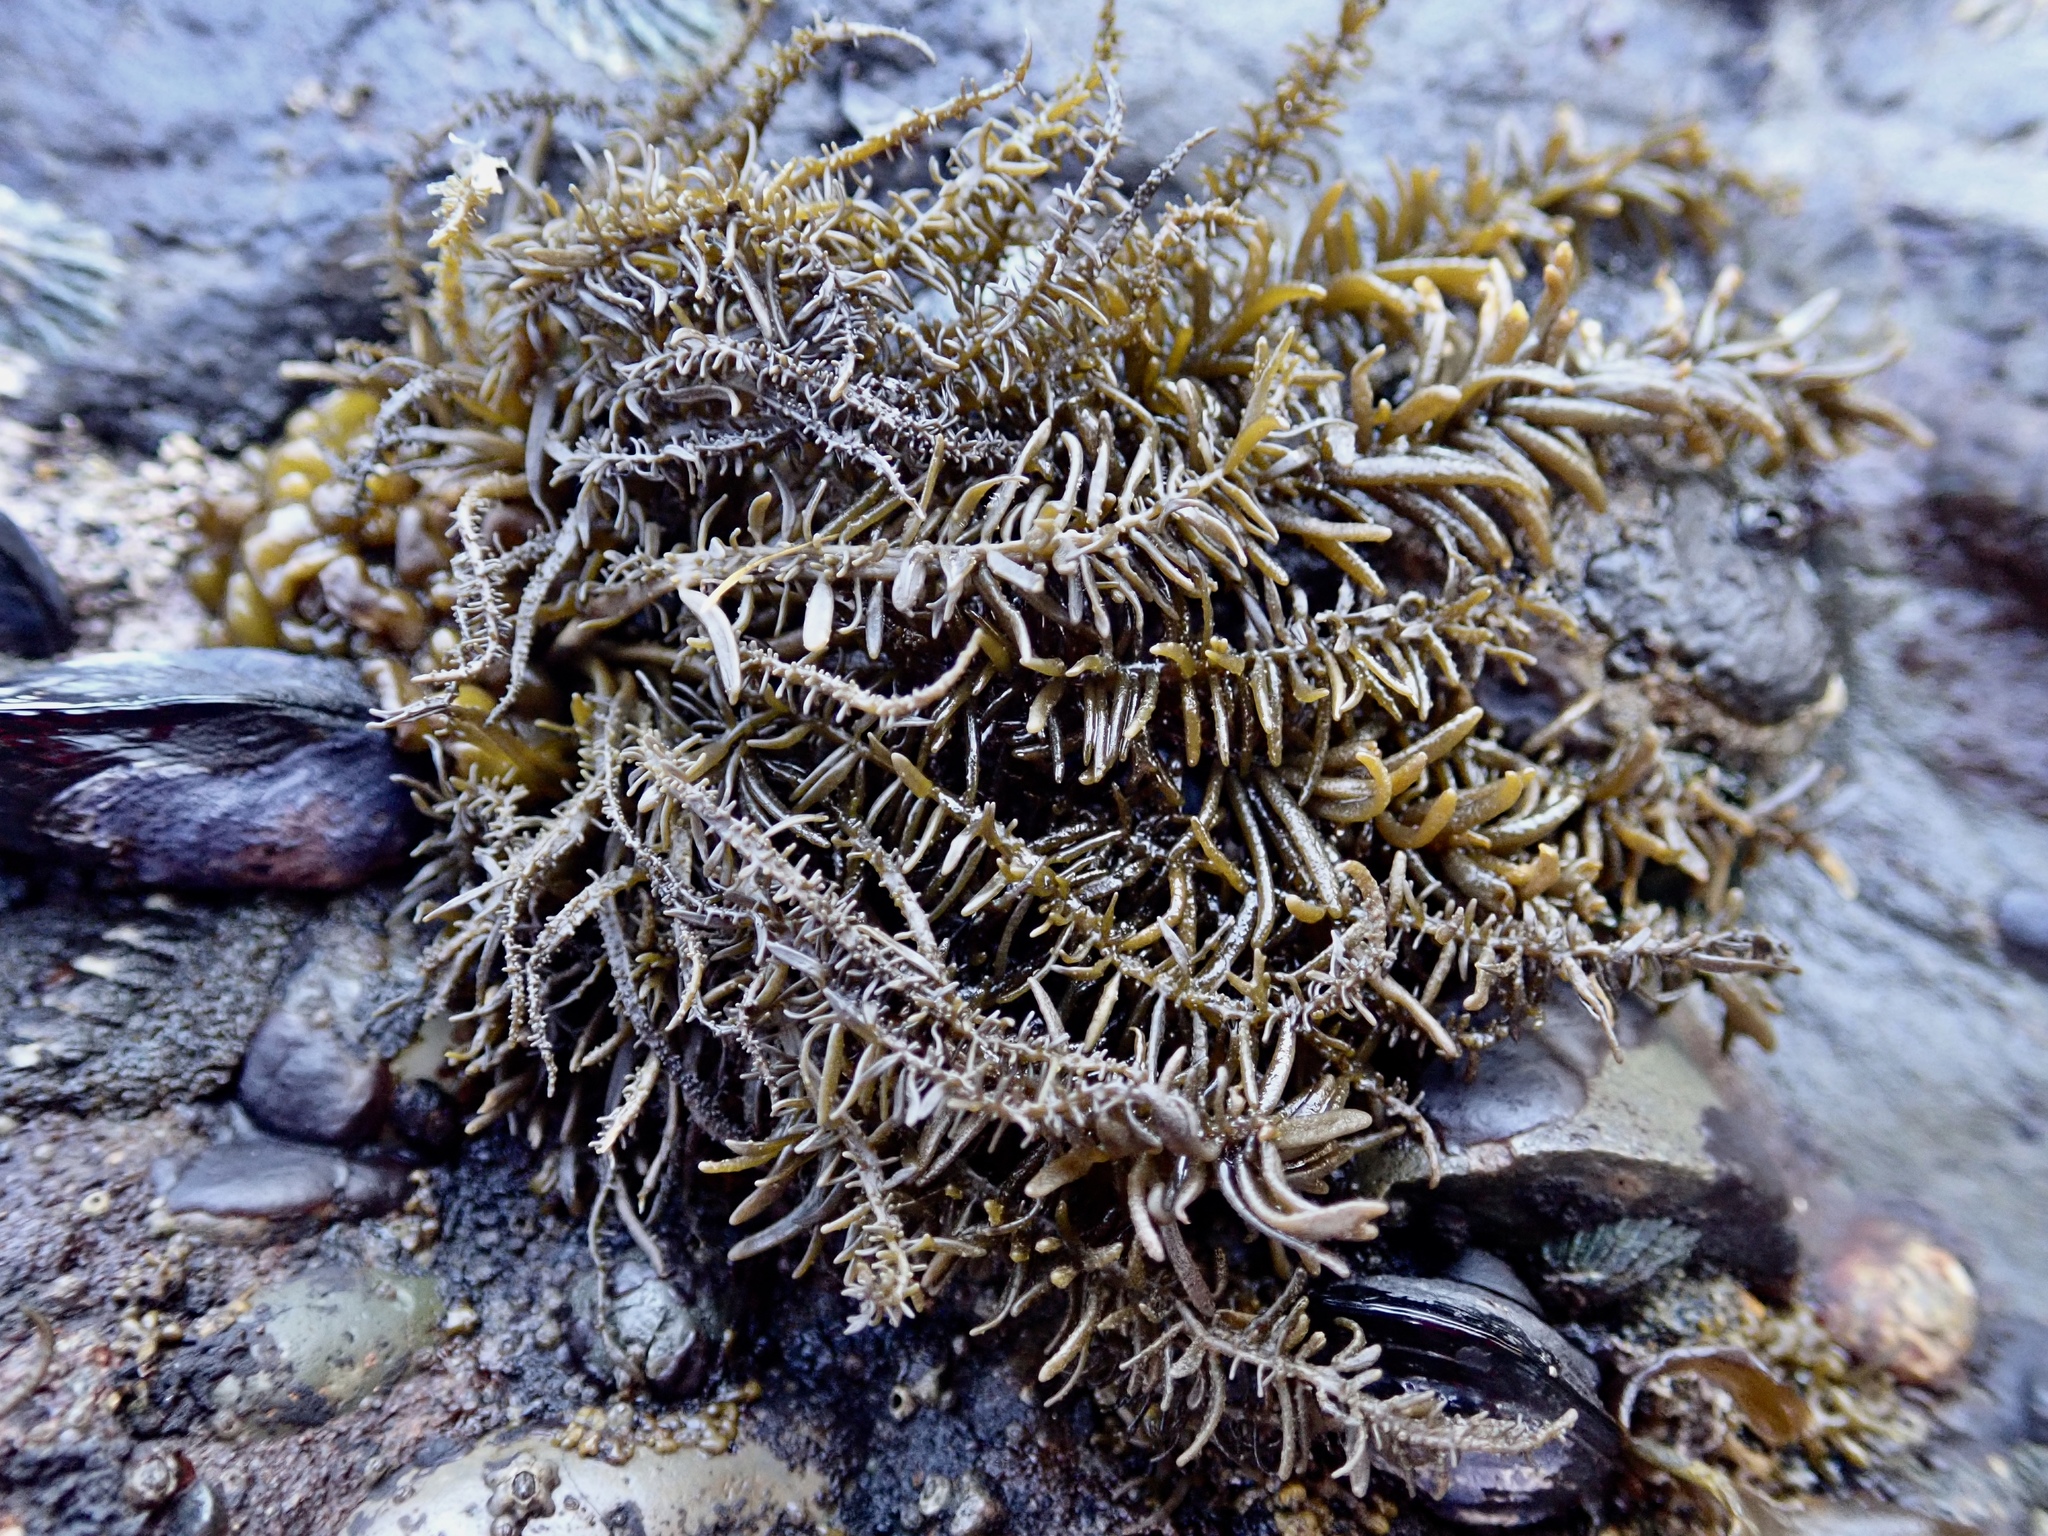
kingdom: Chromista
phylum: Ochrophyta
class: Phaeophyceae
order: Scytosiphonales
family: Scytosiphonaceae
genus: Analipus
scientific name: Analipus japonicus
